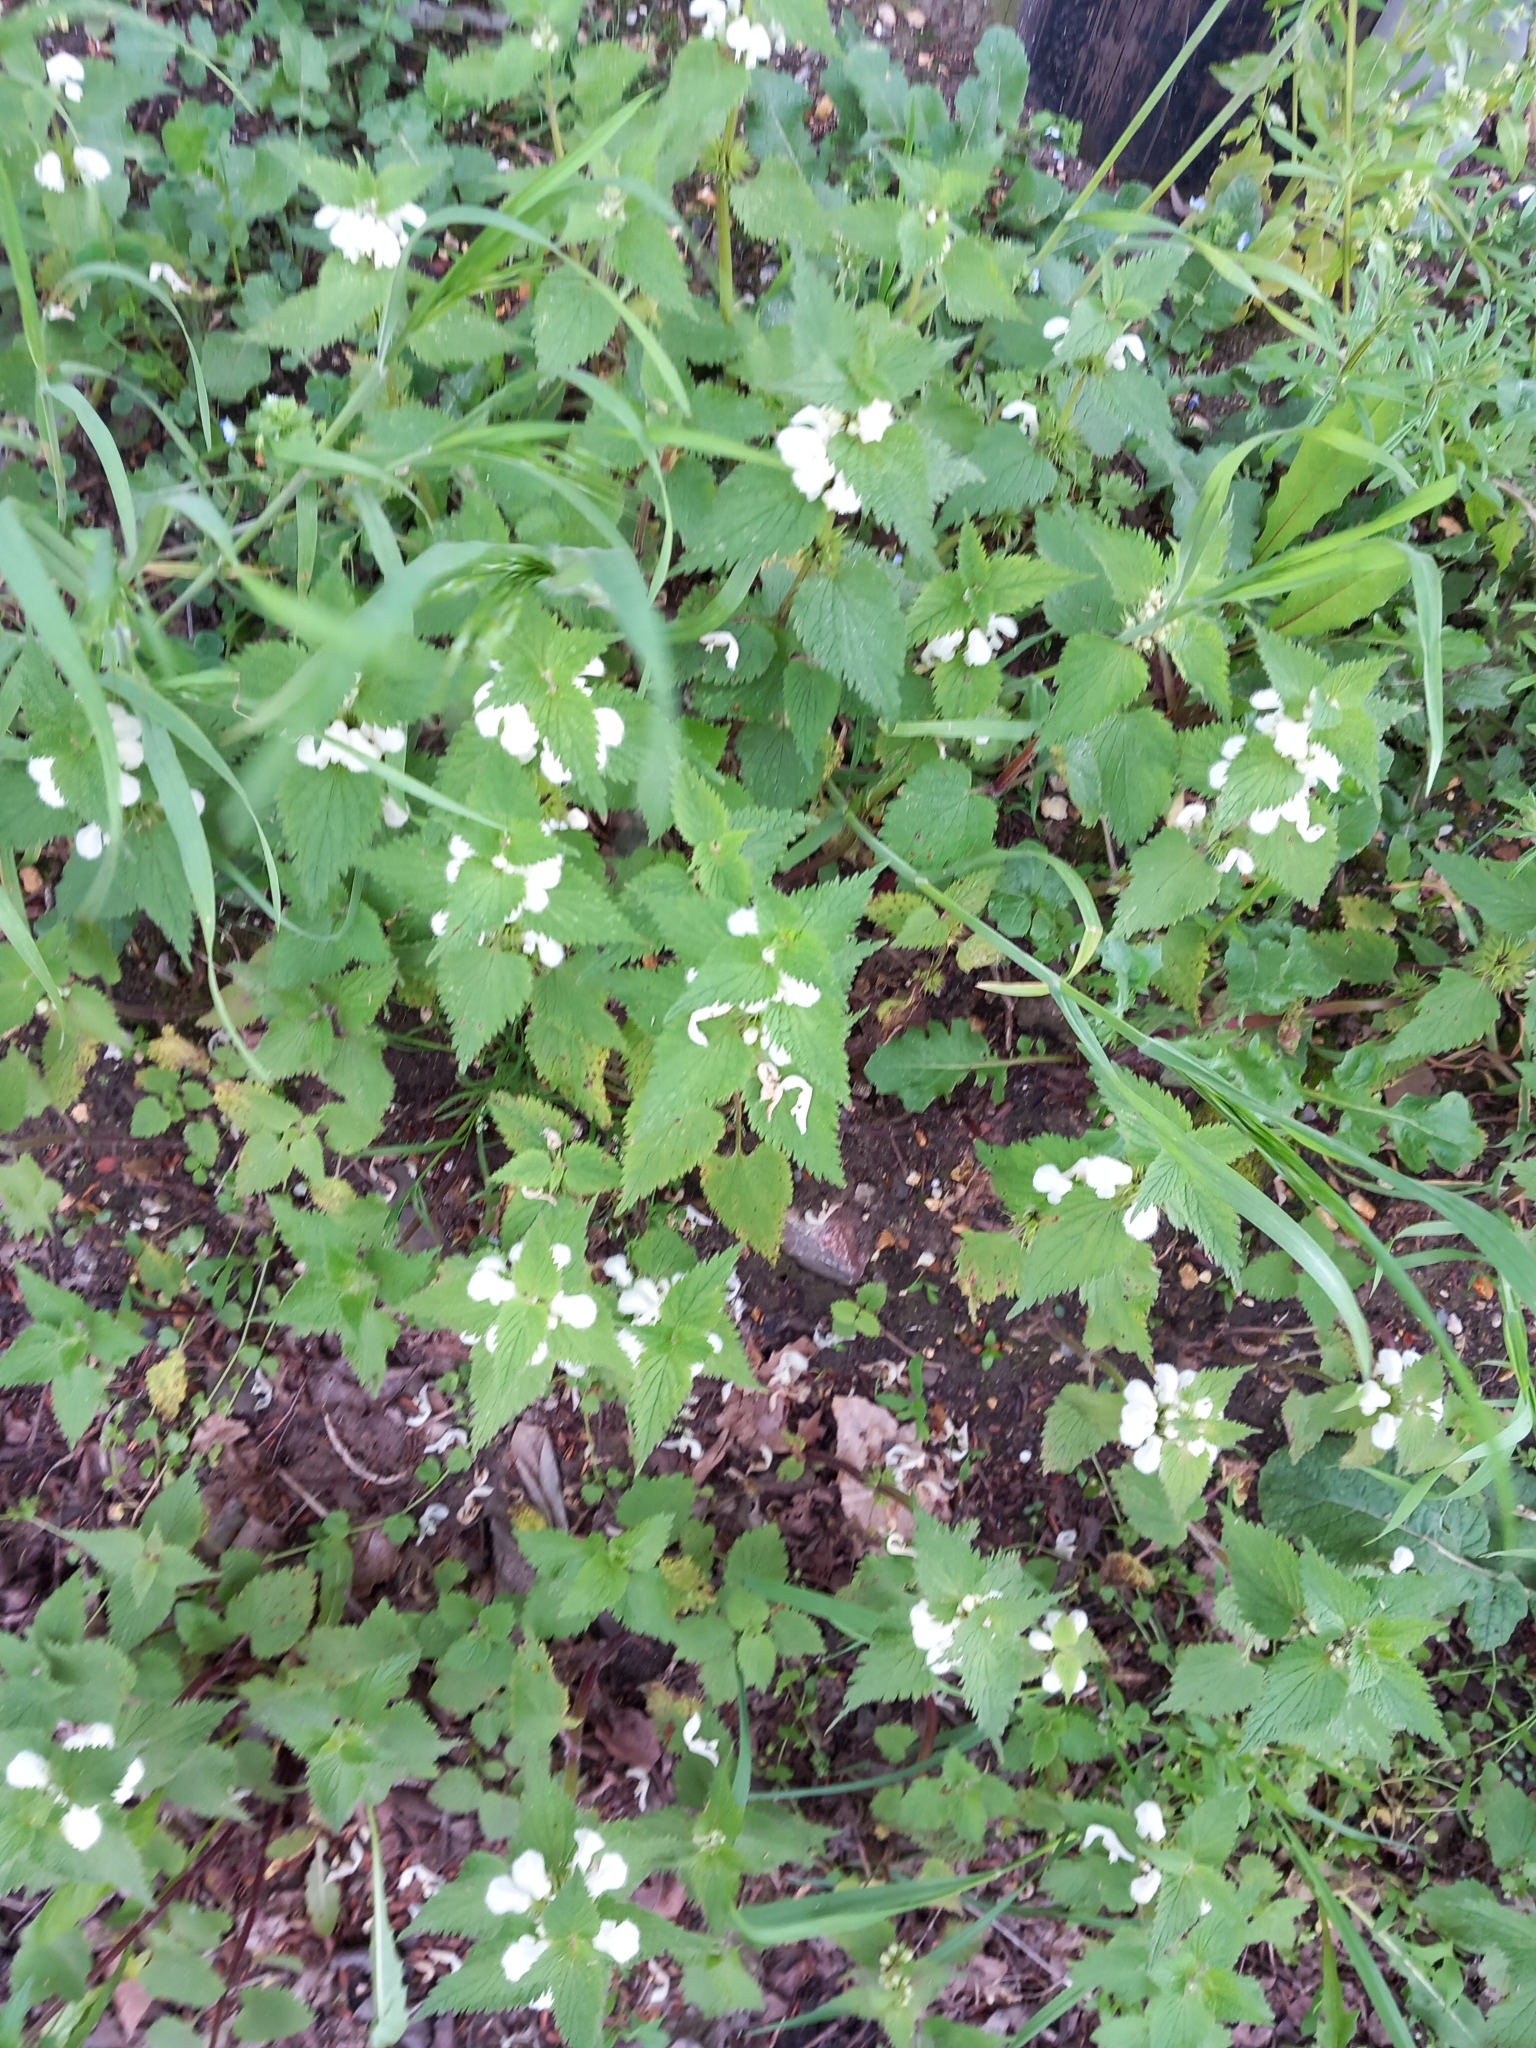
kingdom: Plantae
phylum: Tracheophyta
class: Magnoliopsida
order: Lamiales
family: Lamiaceae
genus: Lamium
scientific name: Lamium album
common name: White dead-nettle
